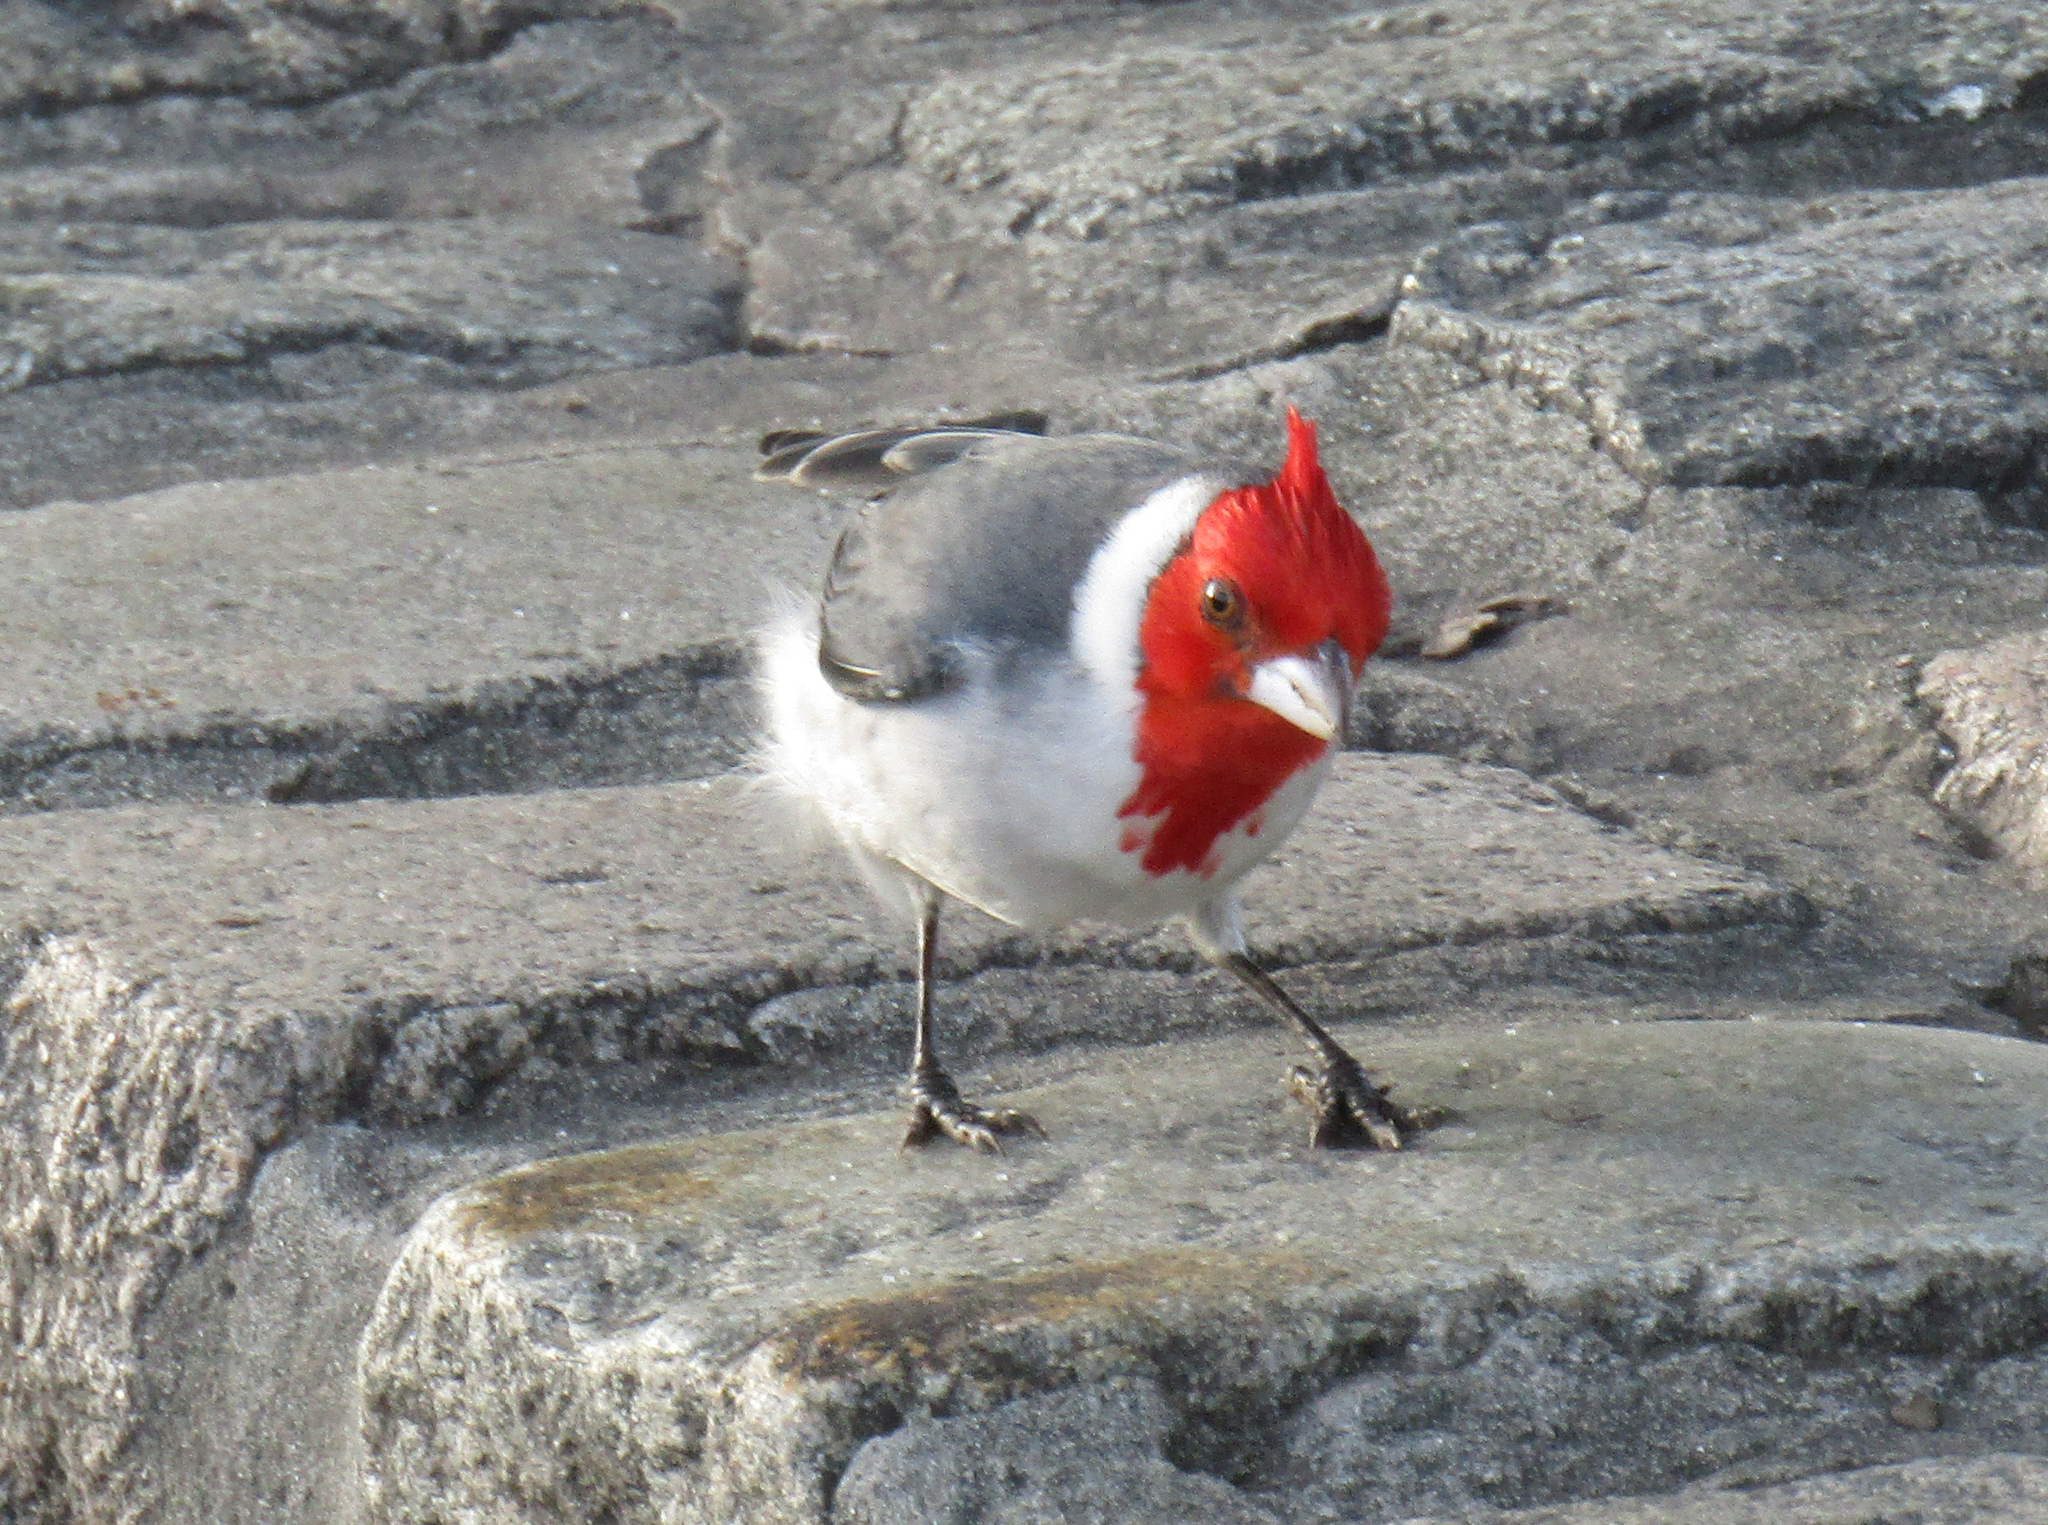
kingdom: Animalia
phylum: Chordata
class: Aves
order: Passeriformes
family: Thraupidae
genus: Paroaria
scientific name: Paroaria coronata
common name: Red-crested cardinal
